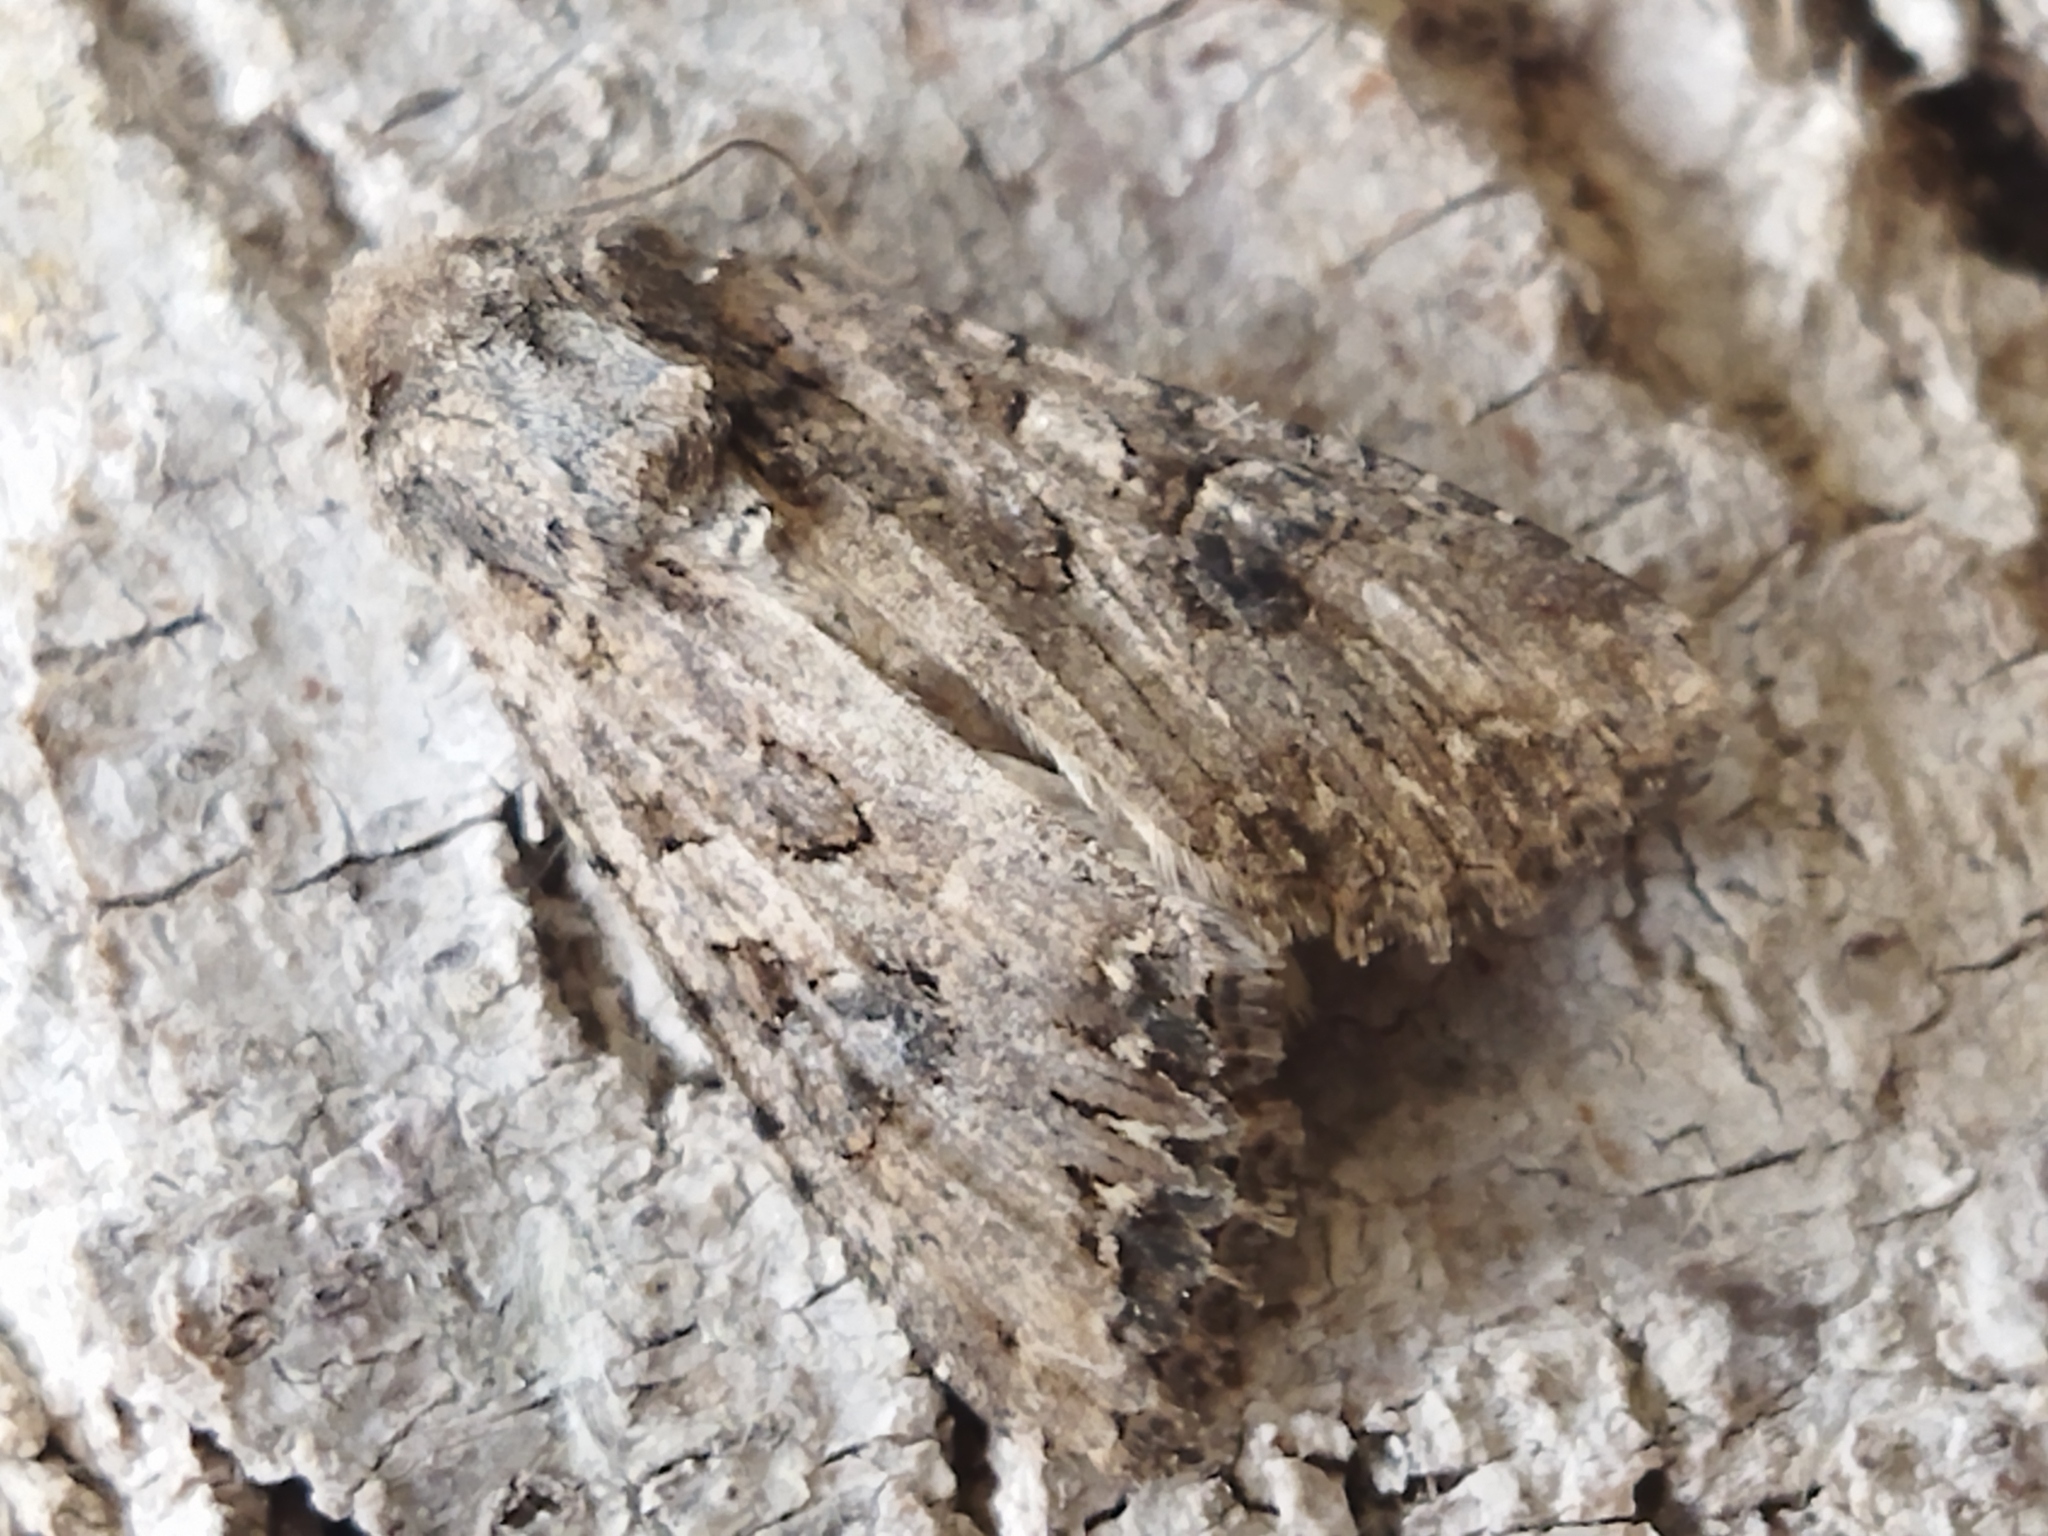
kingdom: Animalia
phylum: Arthropoda
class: Insecta
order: Lepidoptera
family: Noctuidae
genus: Anarta
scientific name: Anarta trifolii
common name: Clover cutworm moth
